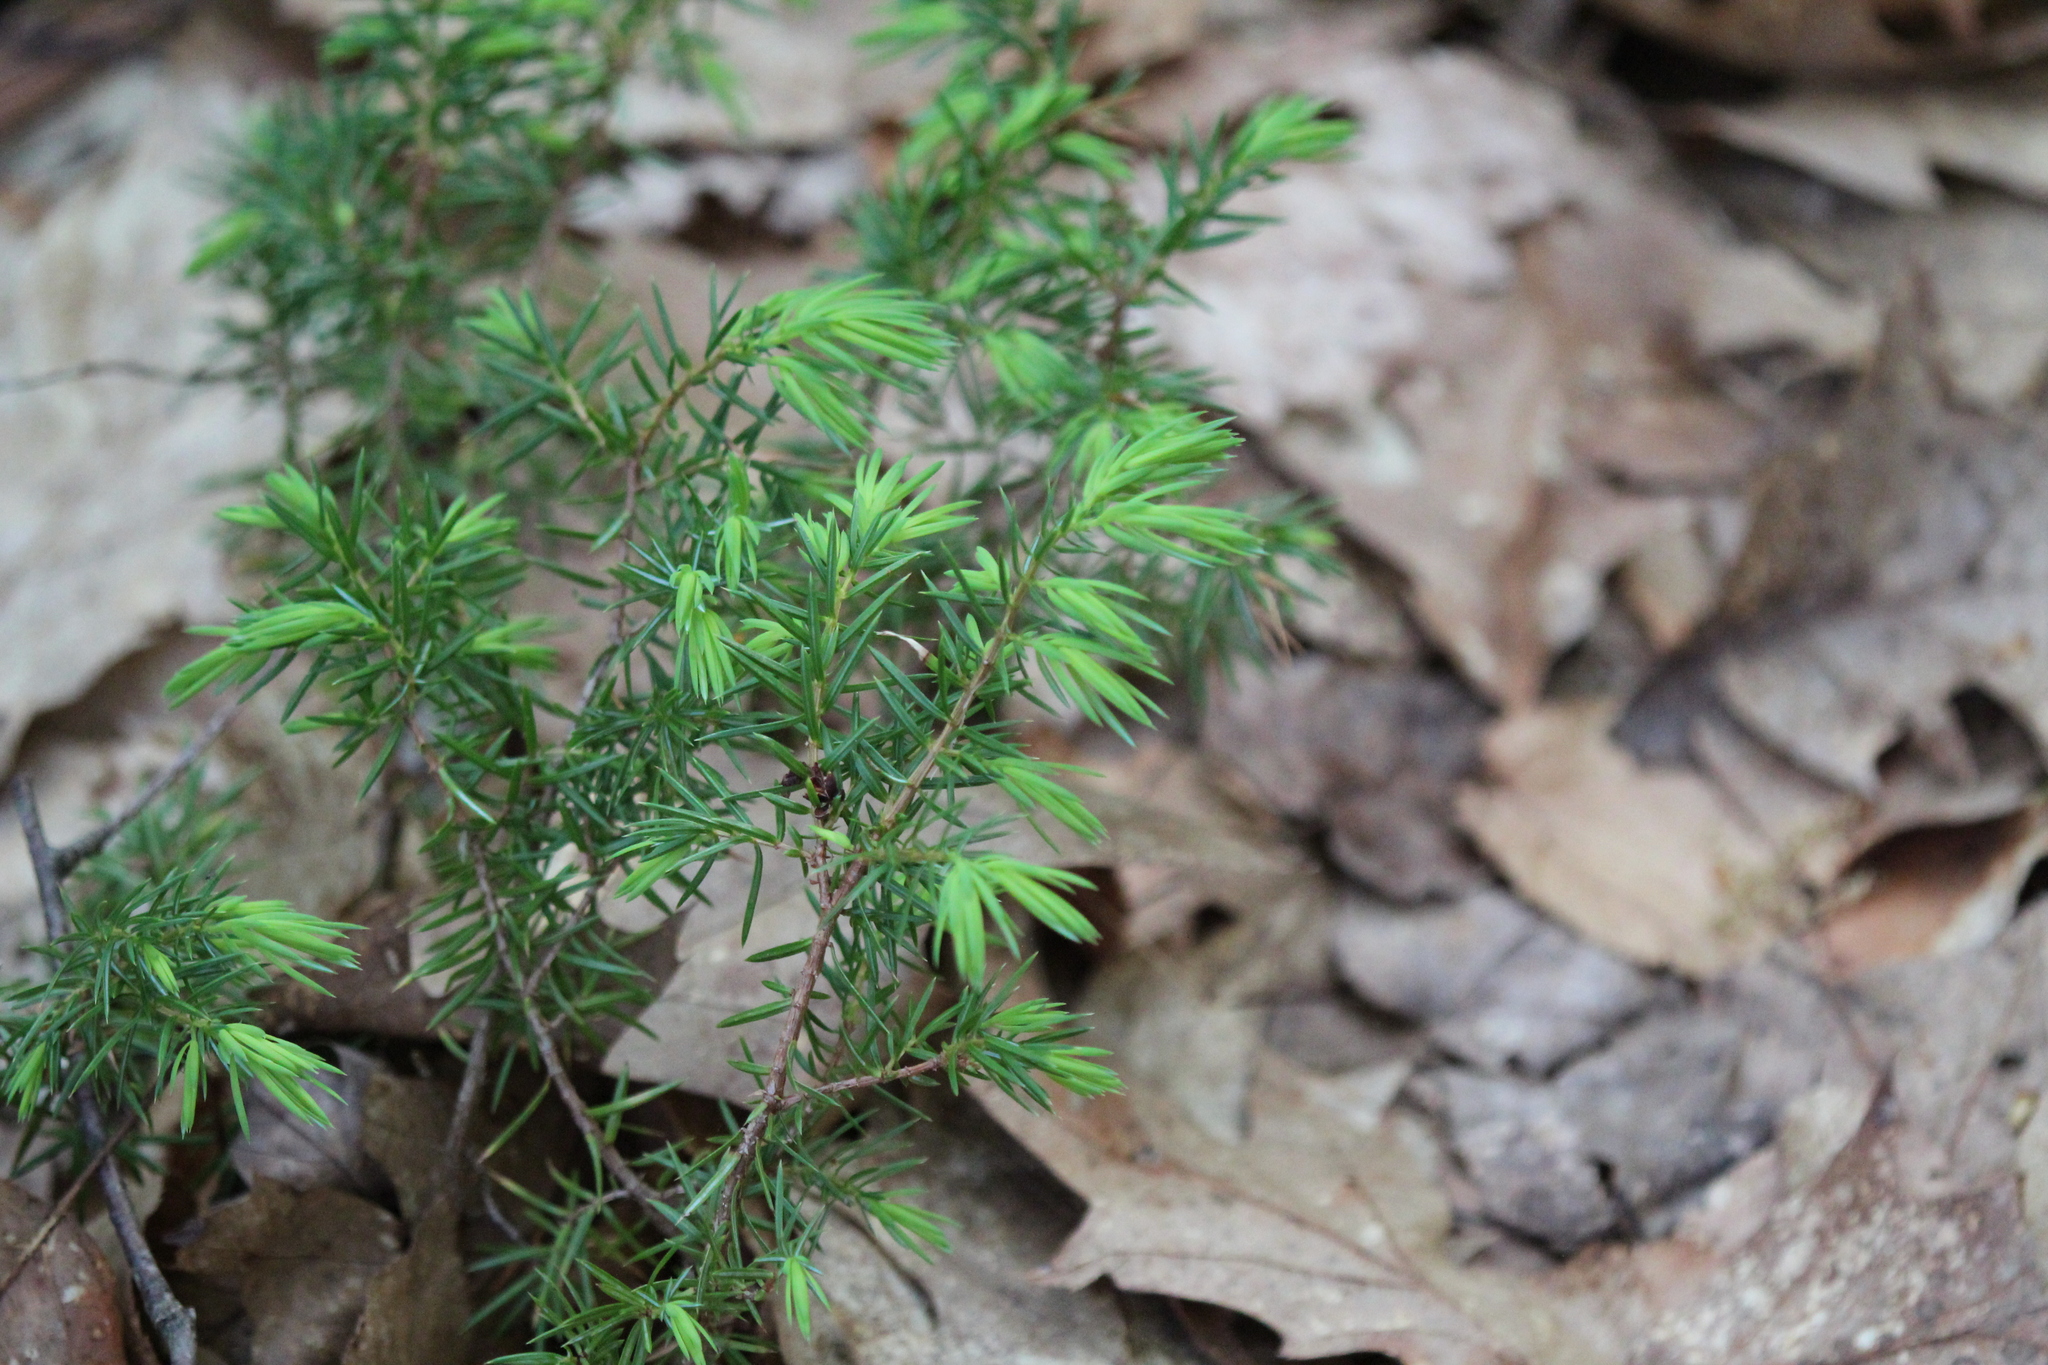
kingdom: Plantae
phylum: Tracheophyta
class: Pinopsida
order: Pinales
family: Cupressaceae
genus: Juniperus
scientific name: Juniperus communis
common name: Common juniper
